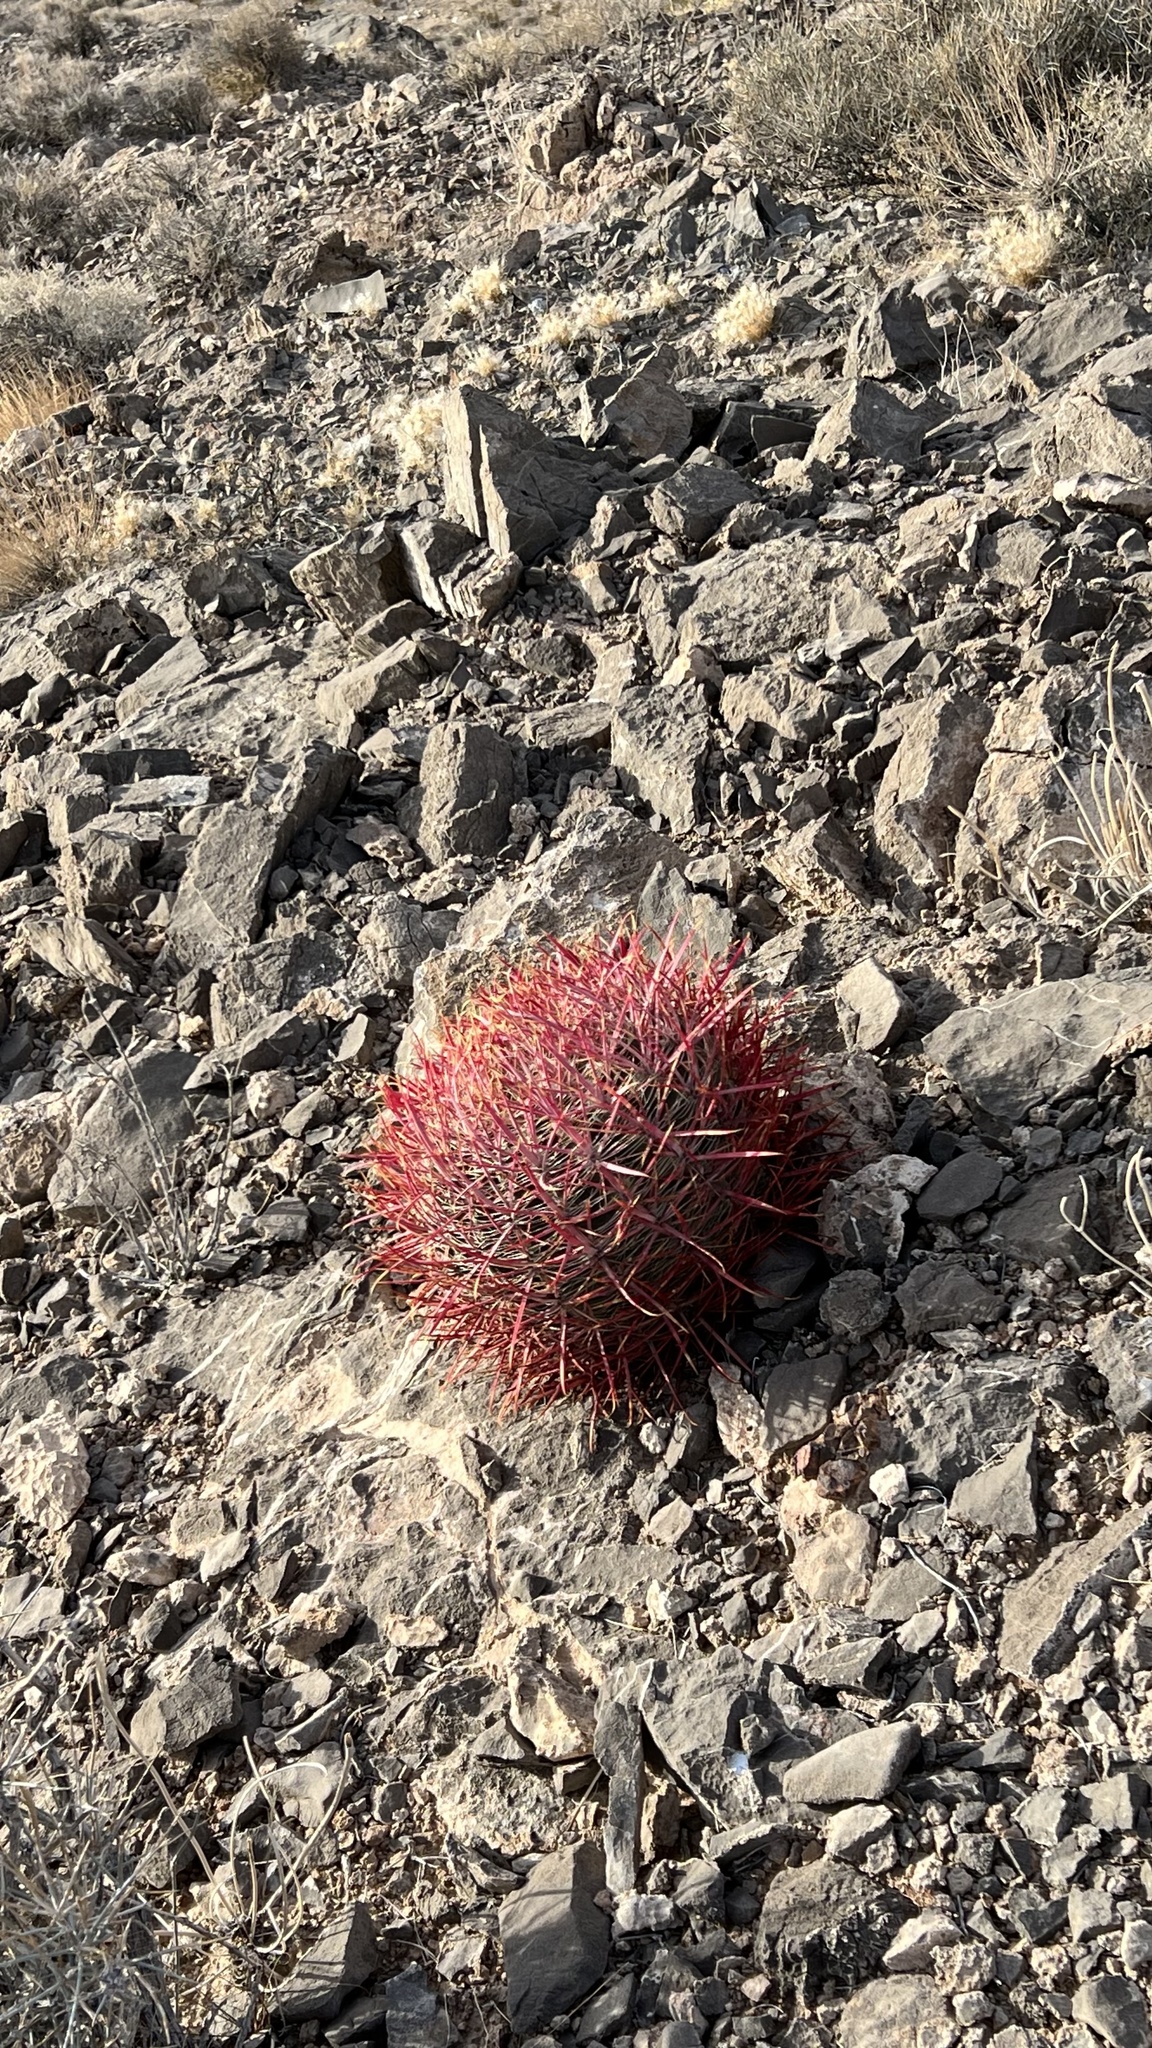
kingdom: Plantae
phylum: Tracheophyta
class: Magnoliopsida
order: Caryophyllales
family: Cactaceae
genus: Ferocactus
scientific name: Ferocactus cylindraceus
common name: California barrel cactus
